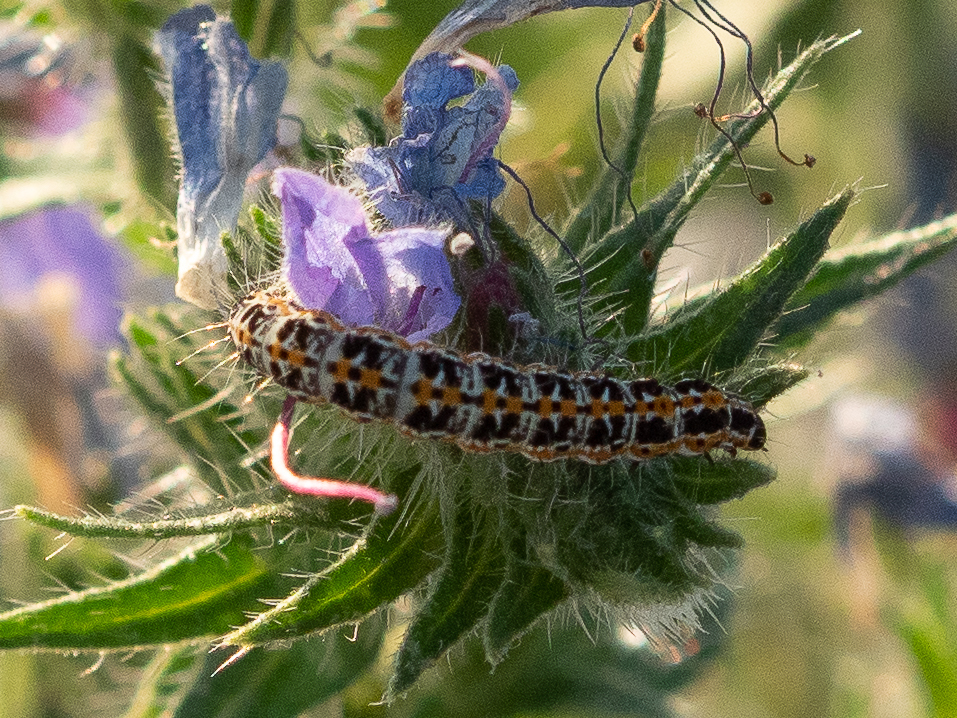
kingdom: Animalia
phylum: Arthropoda
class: Insecta
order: Lepidoptera
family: Ethmiidae
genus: Ethmia
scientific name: Ethmia bipunctella
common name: Bordered ermel
